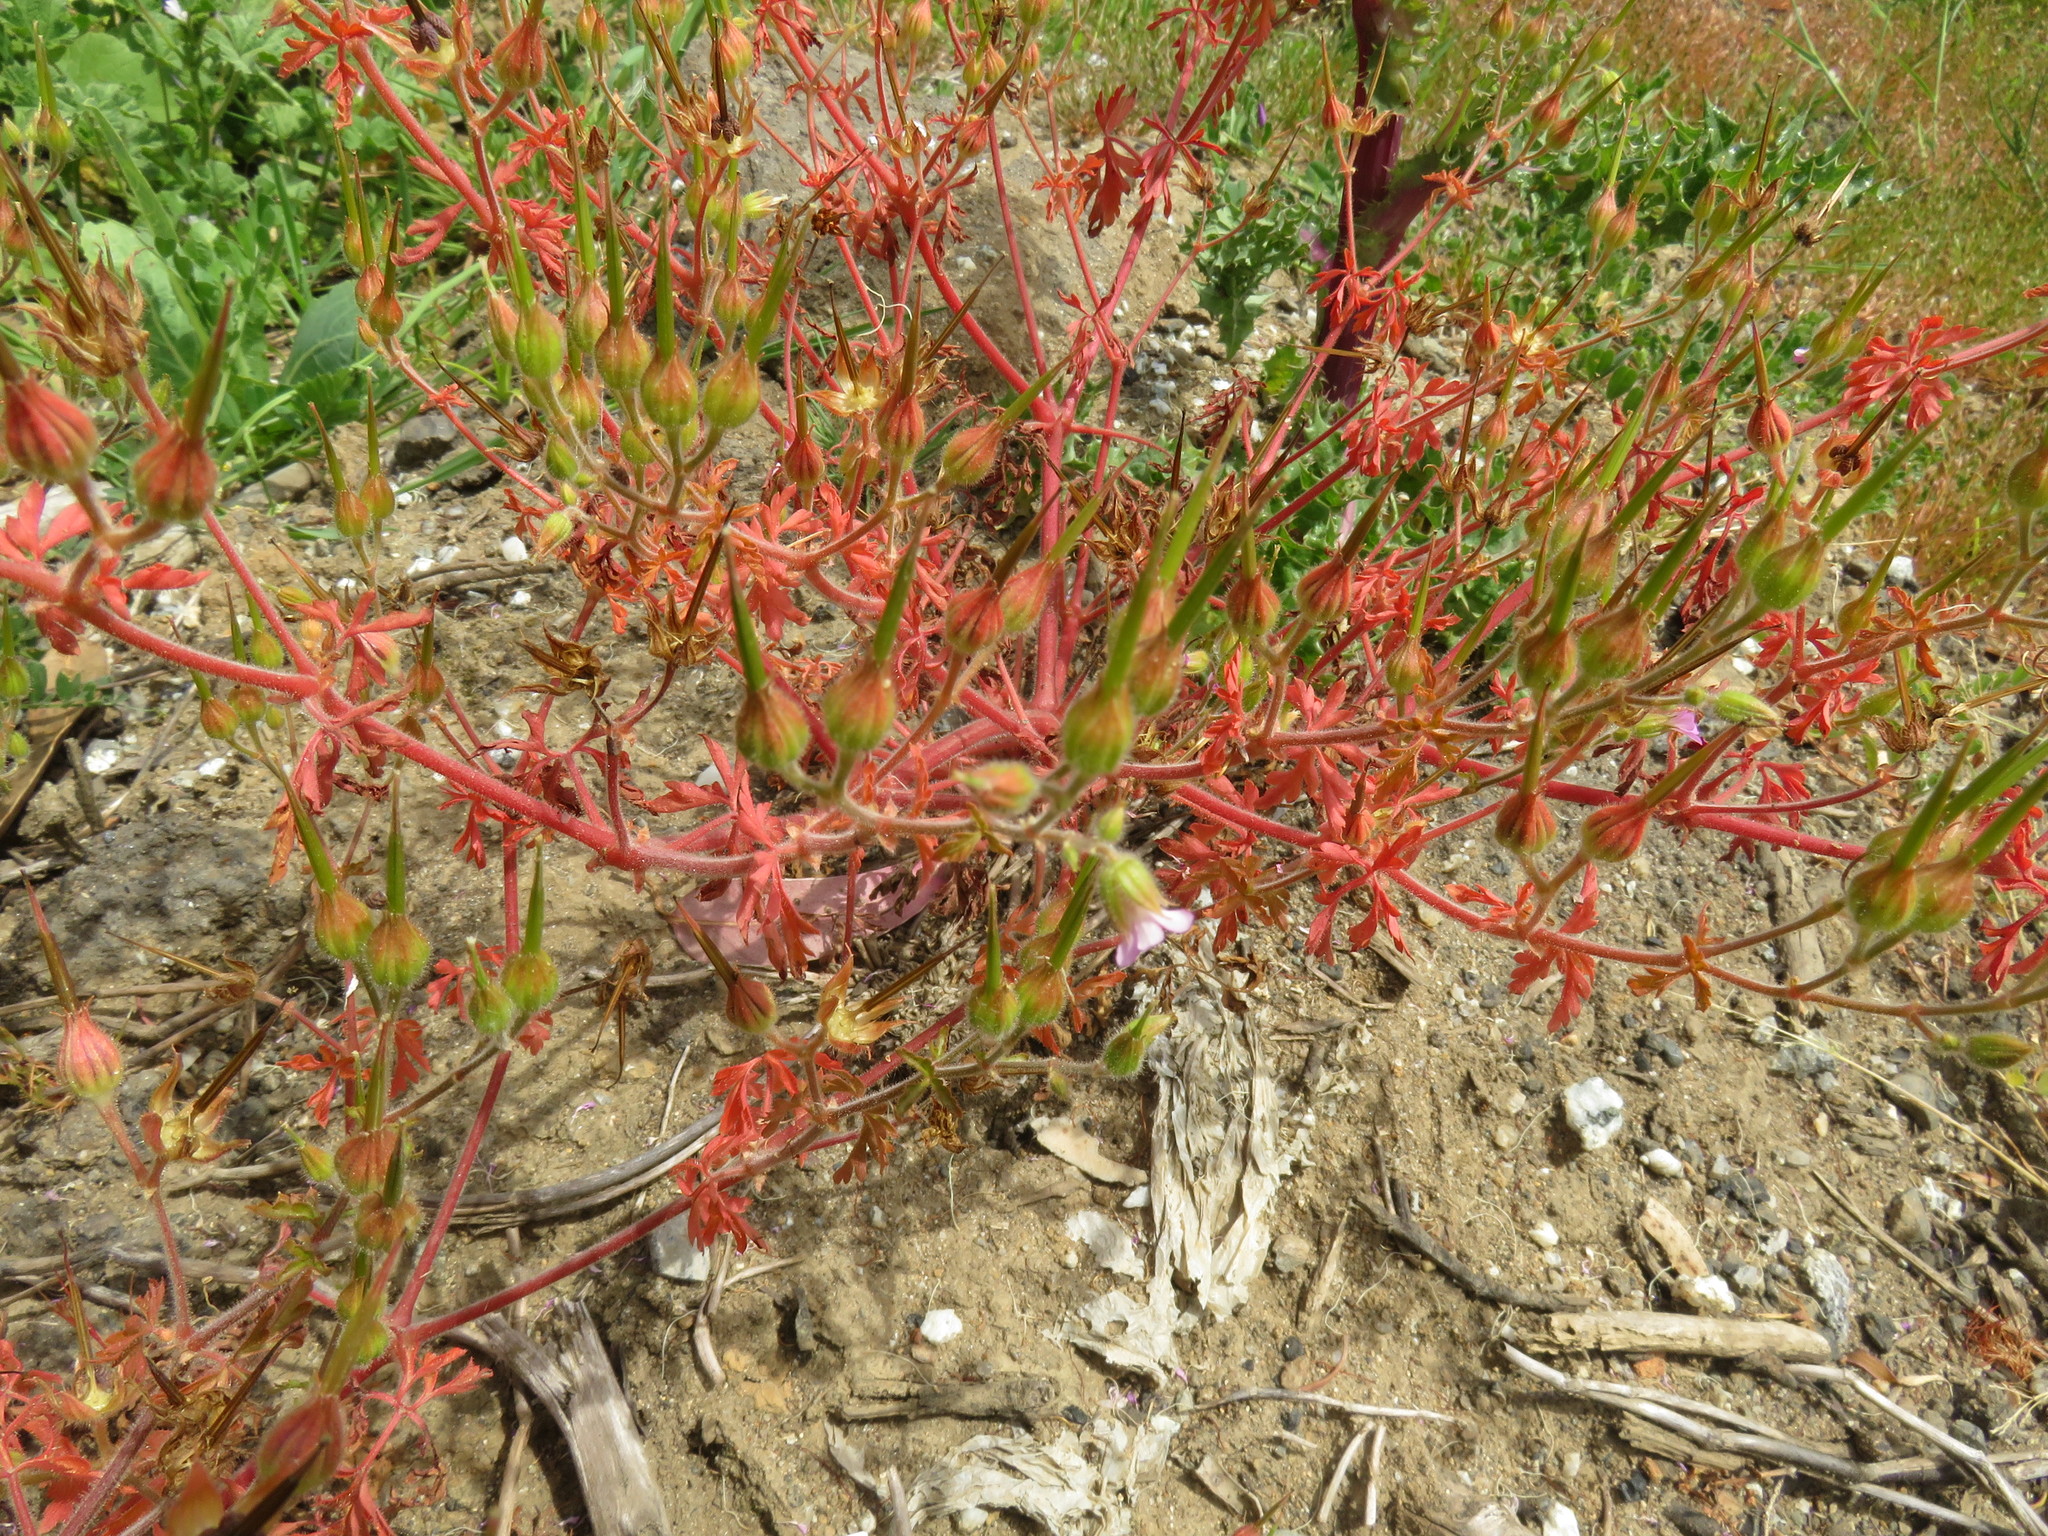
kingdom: Plantae
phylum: Tracheophyta
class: Magnoliopsida
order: Geraniales
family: Geraniaceae
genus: Geranium
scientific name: Geranium purpureum
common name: Little-robin
